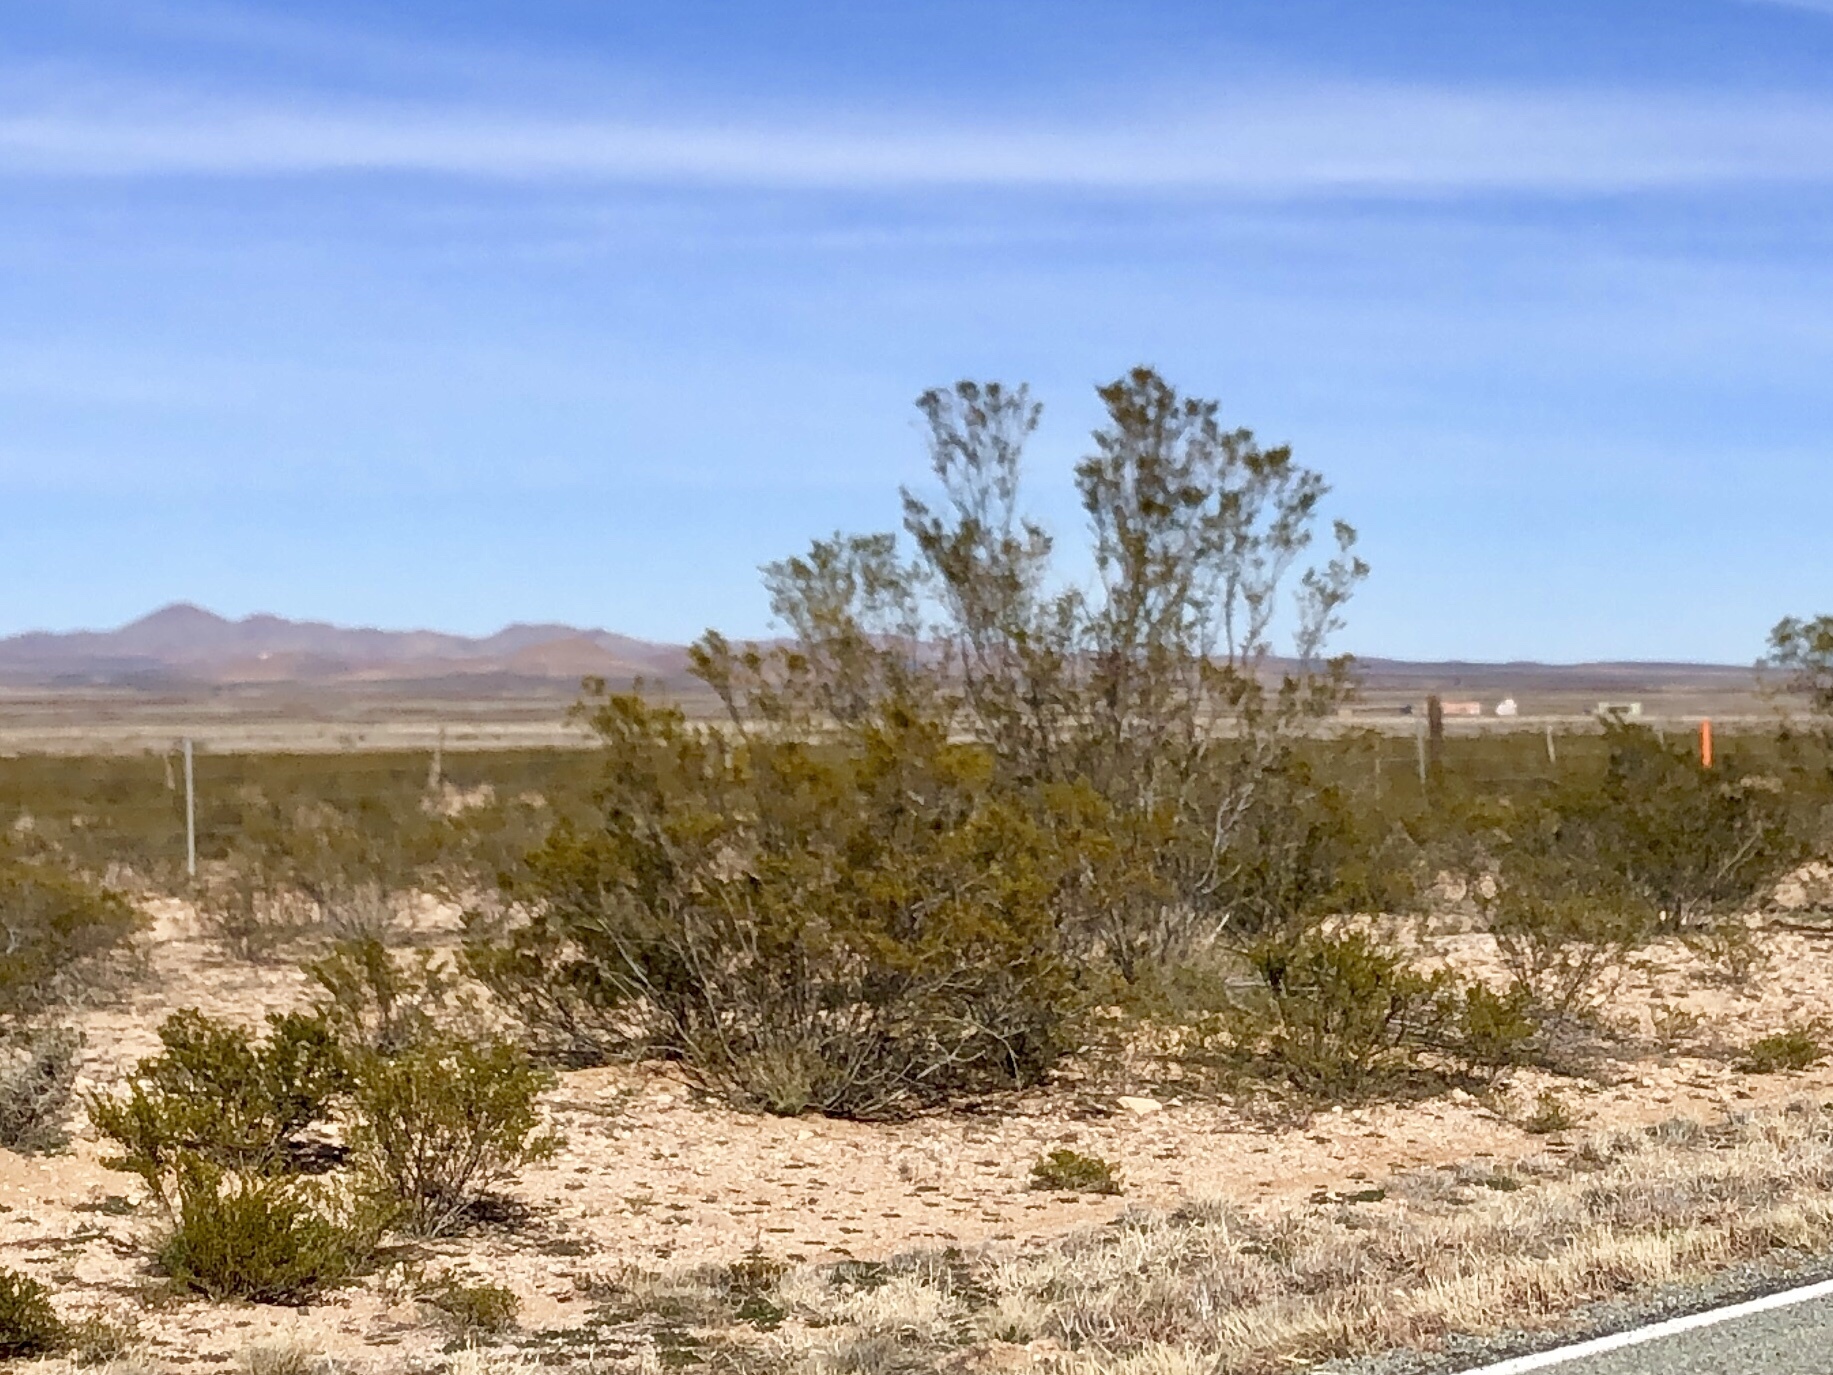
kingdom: Plantae
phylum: Tracheophyta
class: Magnoliopsida
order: Zygophyllales
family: Zygophyllaceae
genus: Larrea
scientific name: Larrea tridentata
